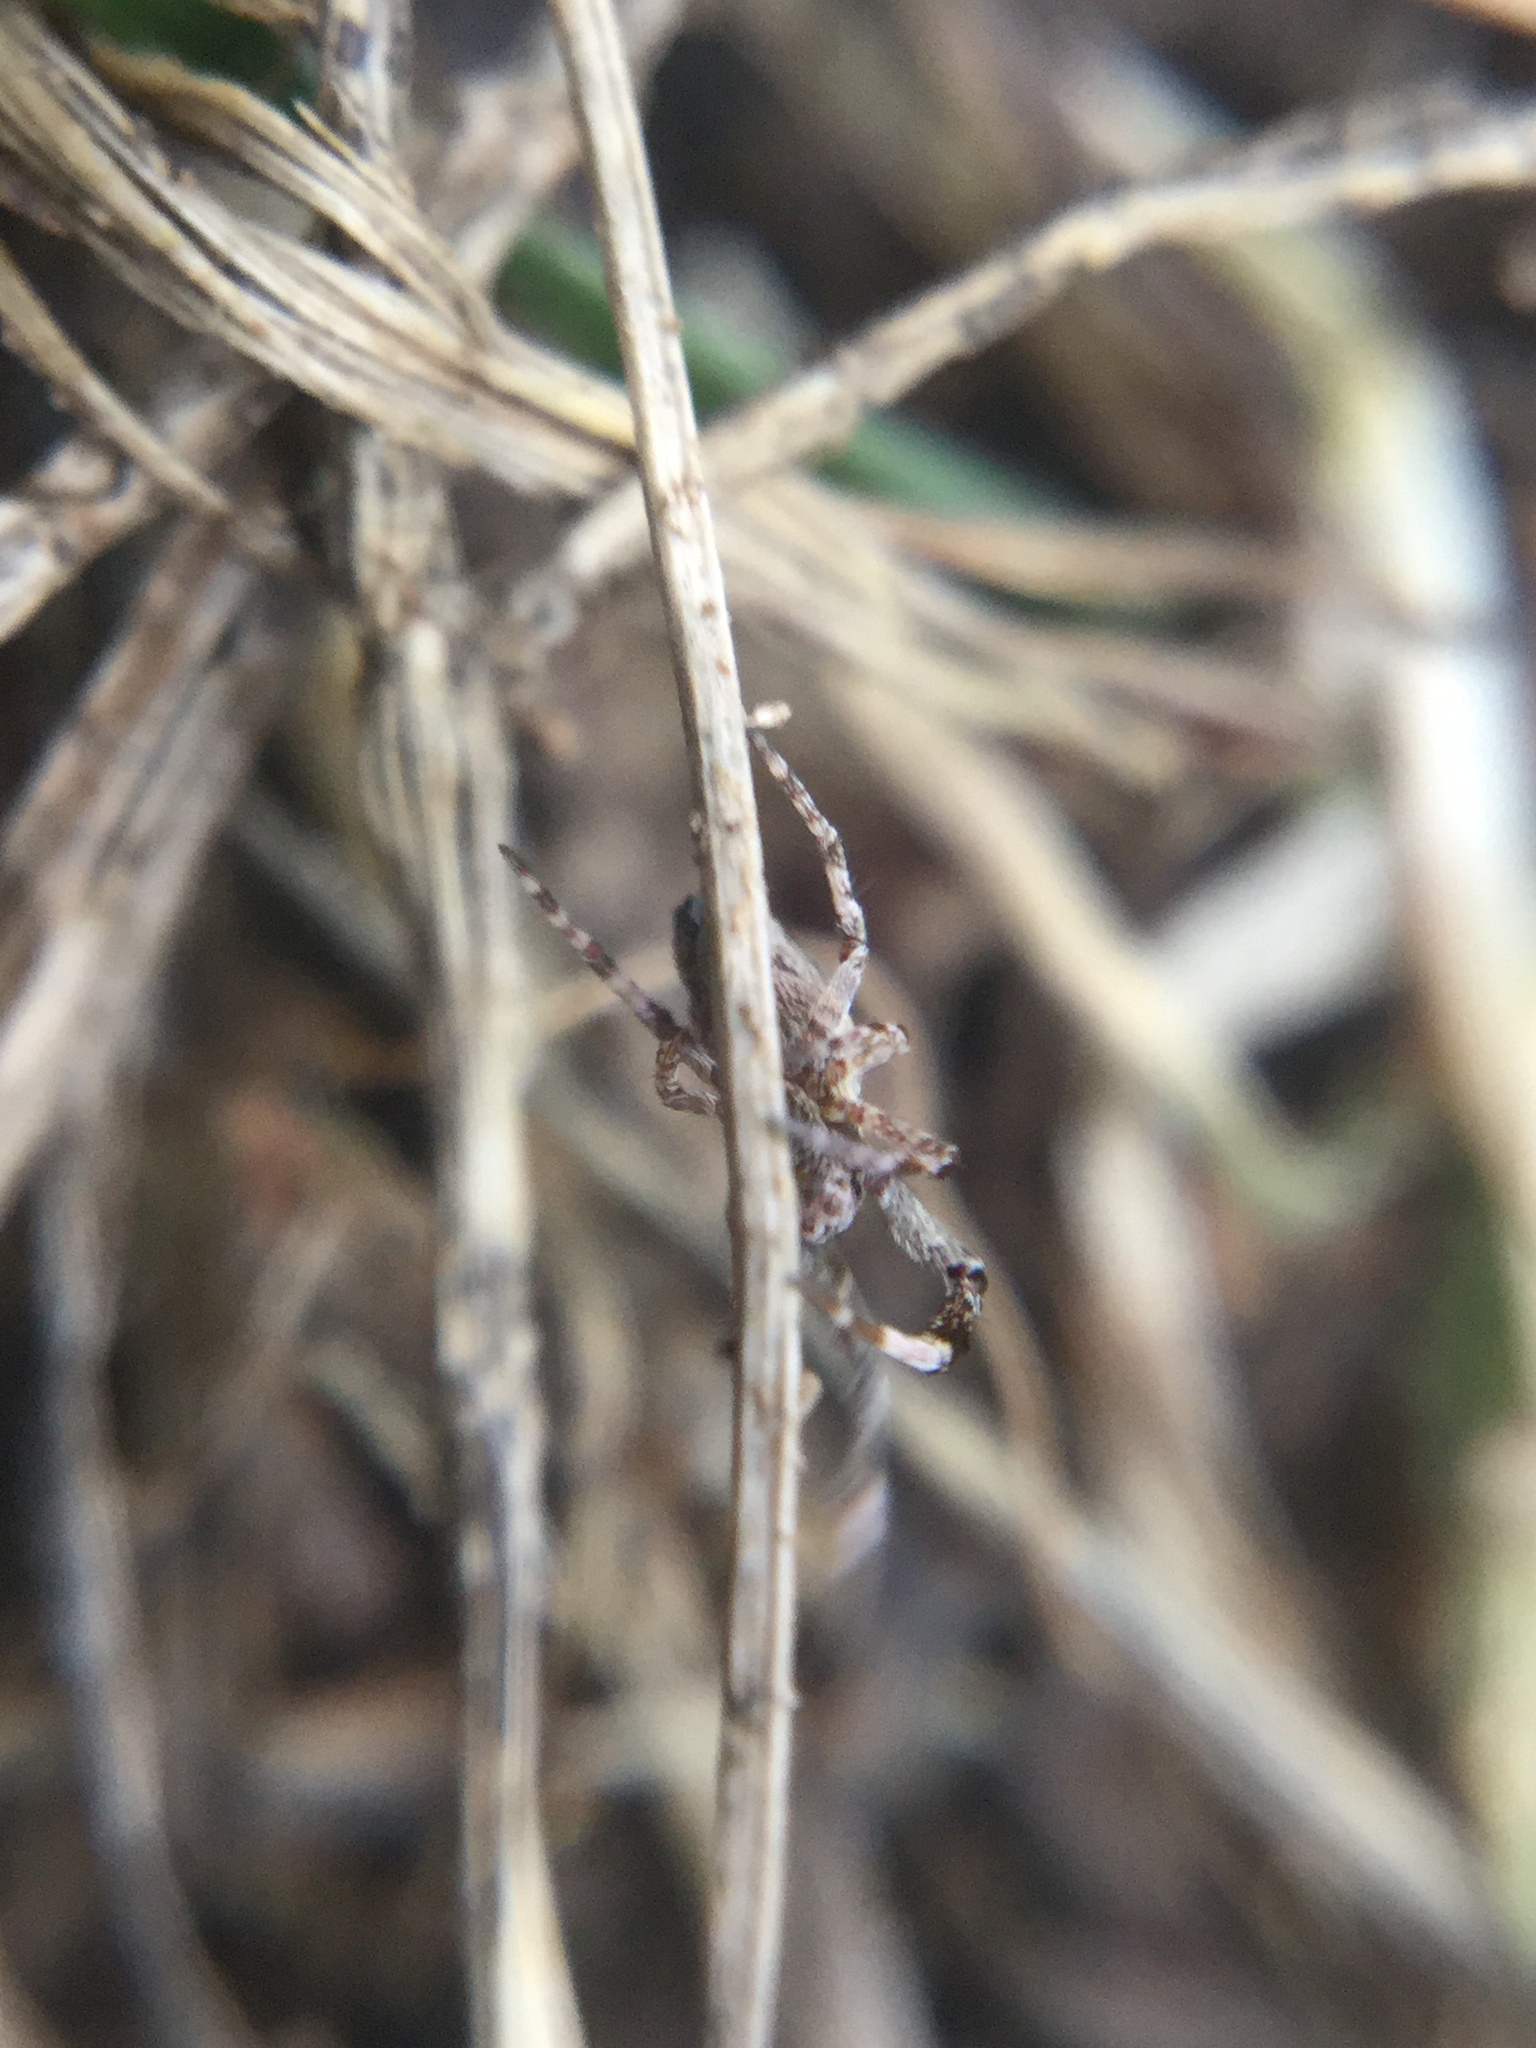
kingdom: Animalia
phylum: Arthropoda
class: Arachnida
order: Araneae
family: Uloboridae
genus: Uloborus
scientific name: Uloborus glomosus
